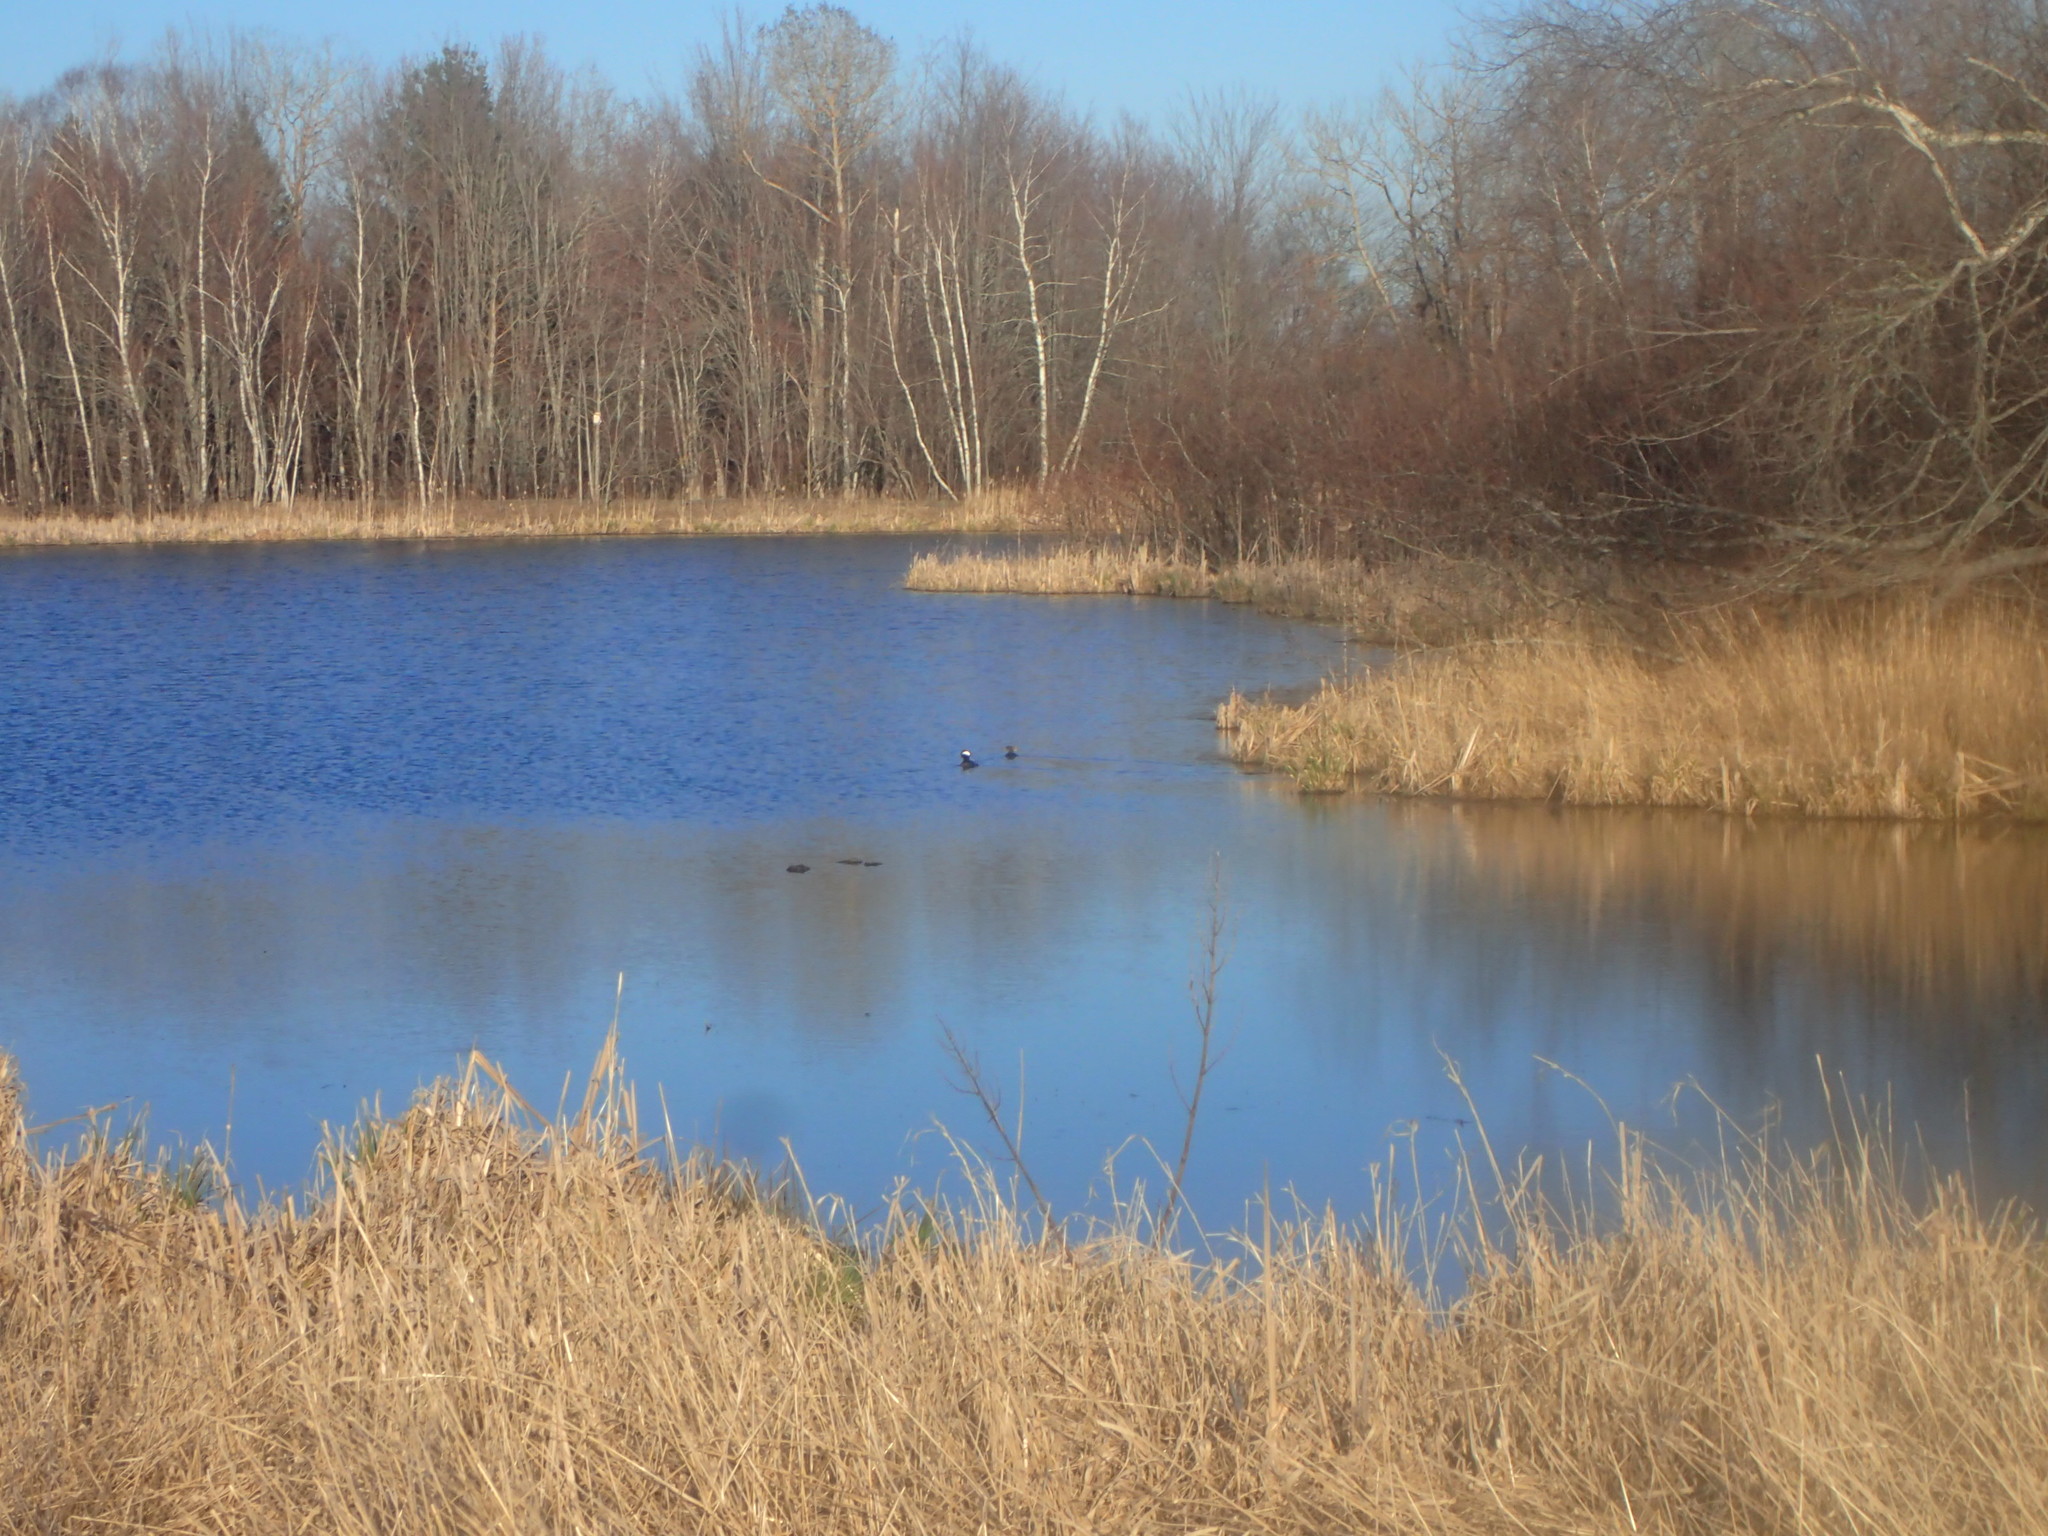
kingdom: Animalia
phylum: Chordata
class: Aves
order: Anseriformes
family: Anatidae
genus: Lophodytes
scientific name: Lophodytes cucullatus
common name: Hooded merganser
